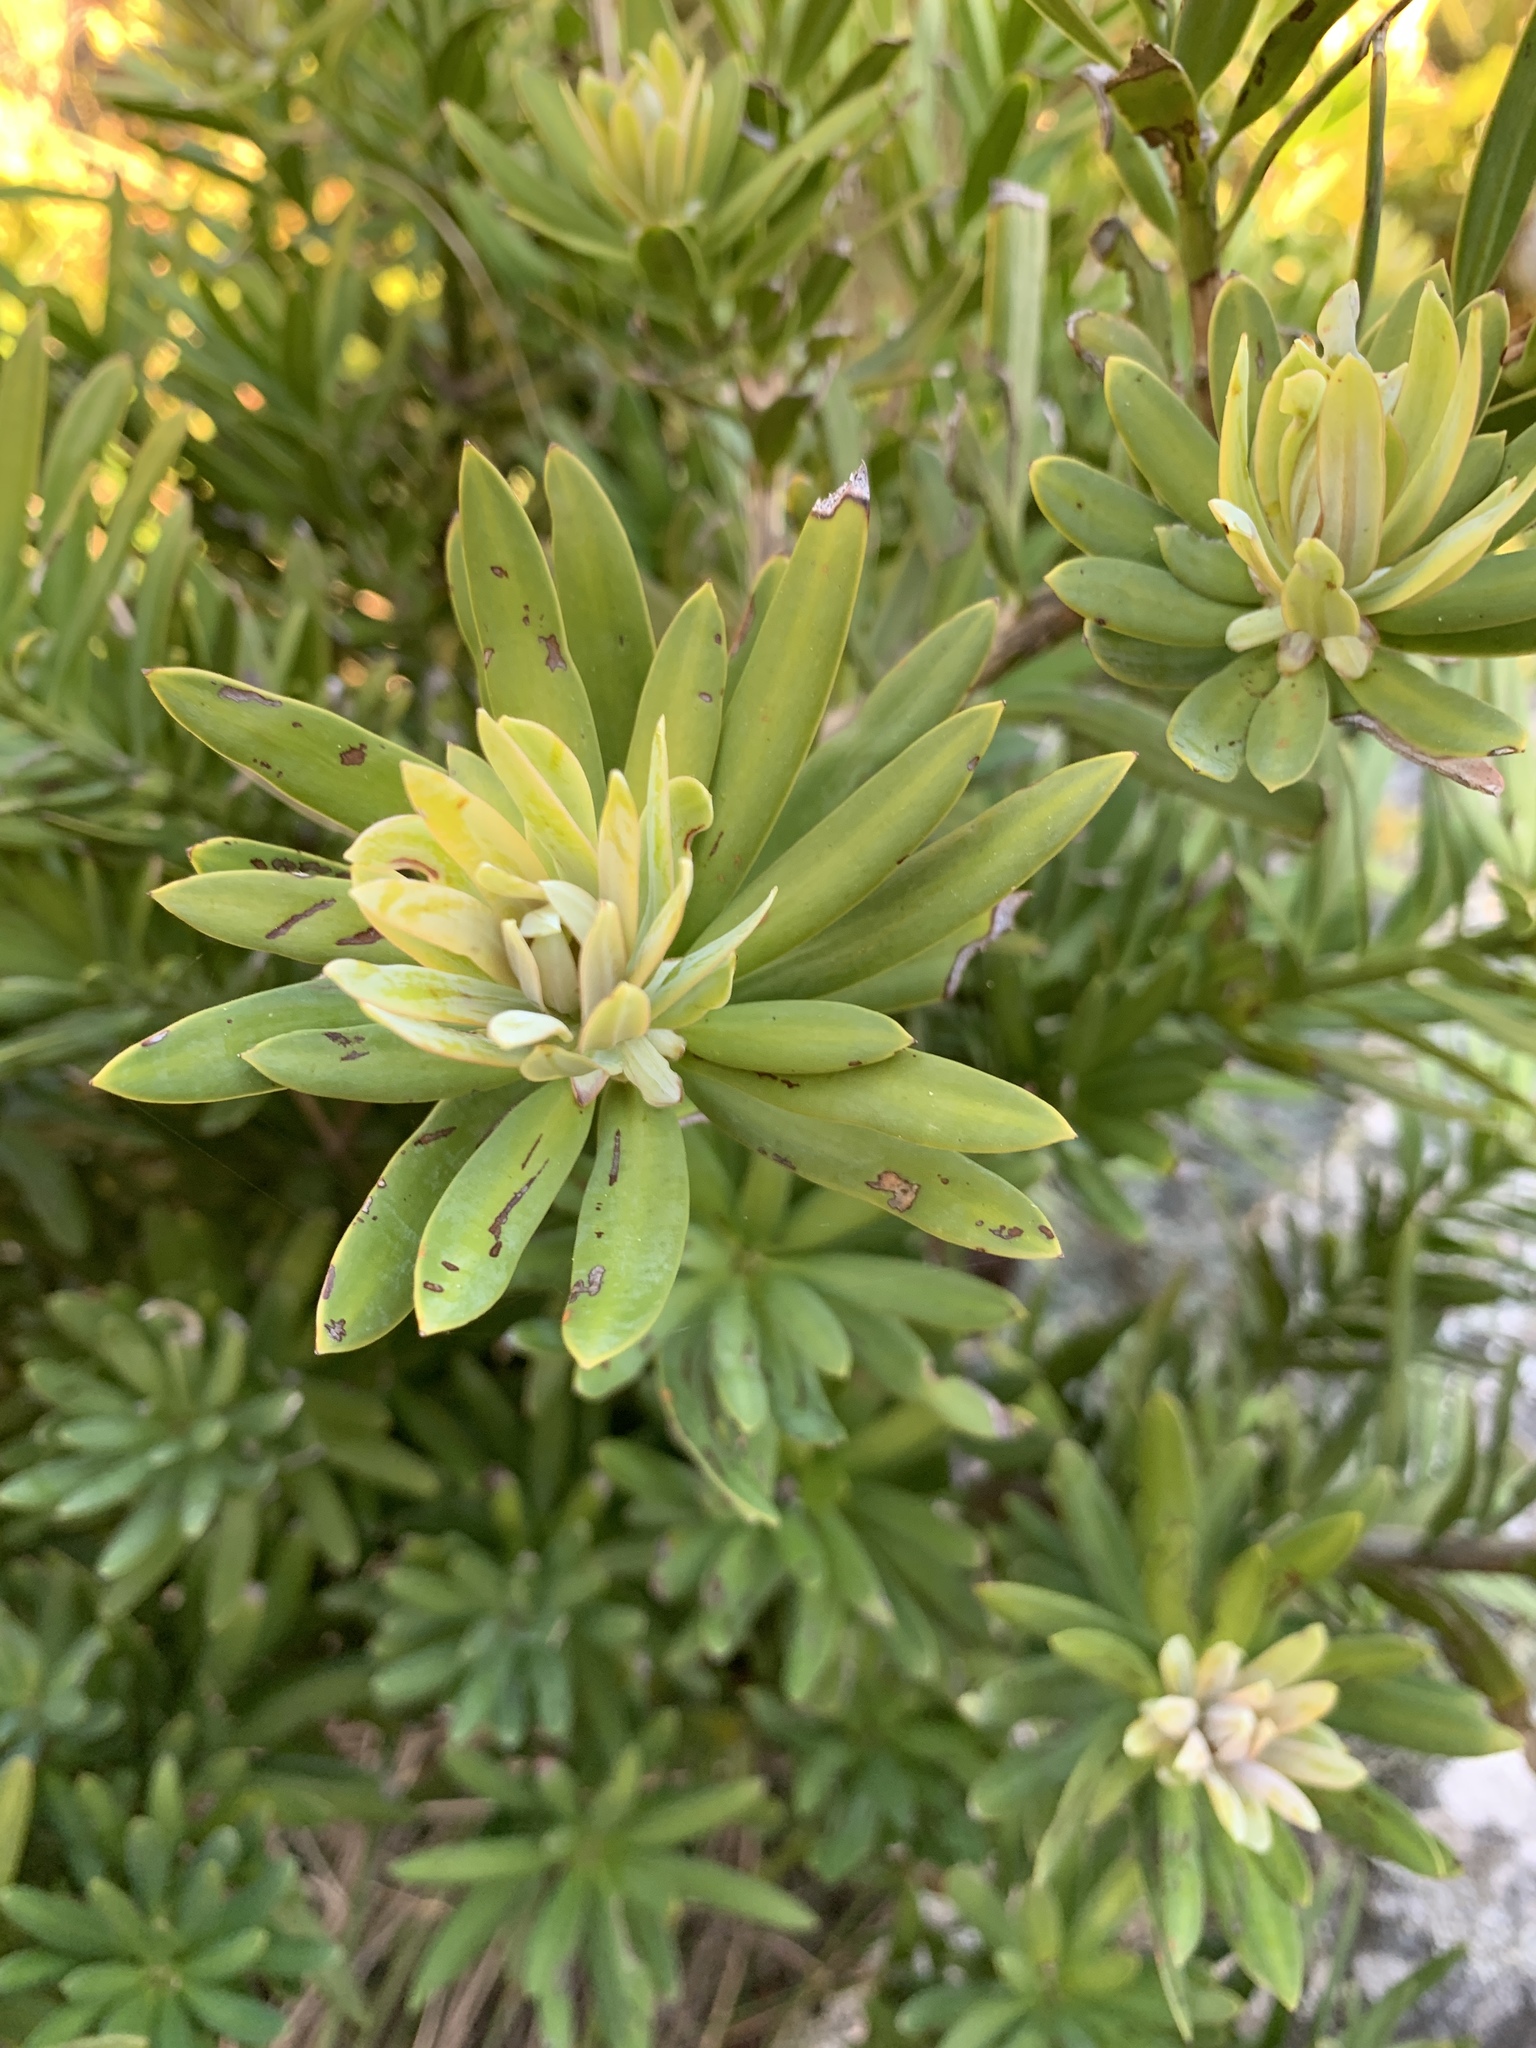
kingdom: Plantae
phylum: Tracheophyta
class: Pinopsida
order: Pinales
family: Podocarpaceae
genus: Podocarpus
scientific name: Podocarpus latifolius
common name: True yellowwood
